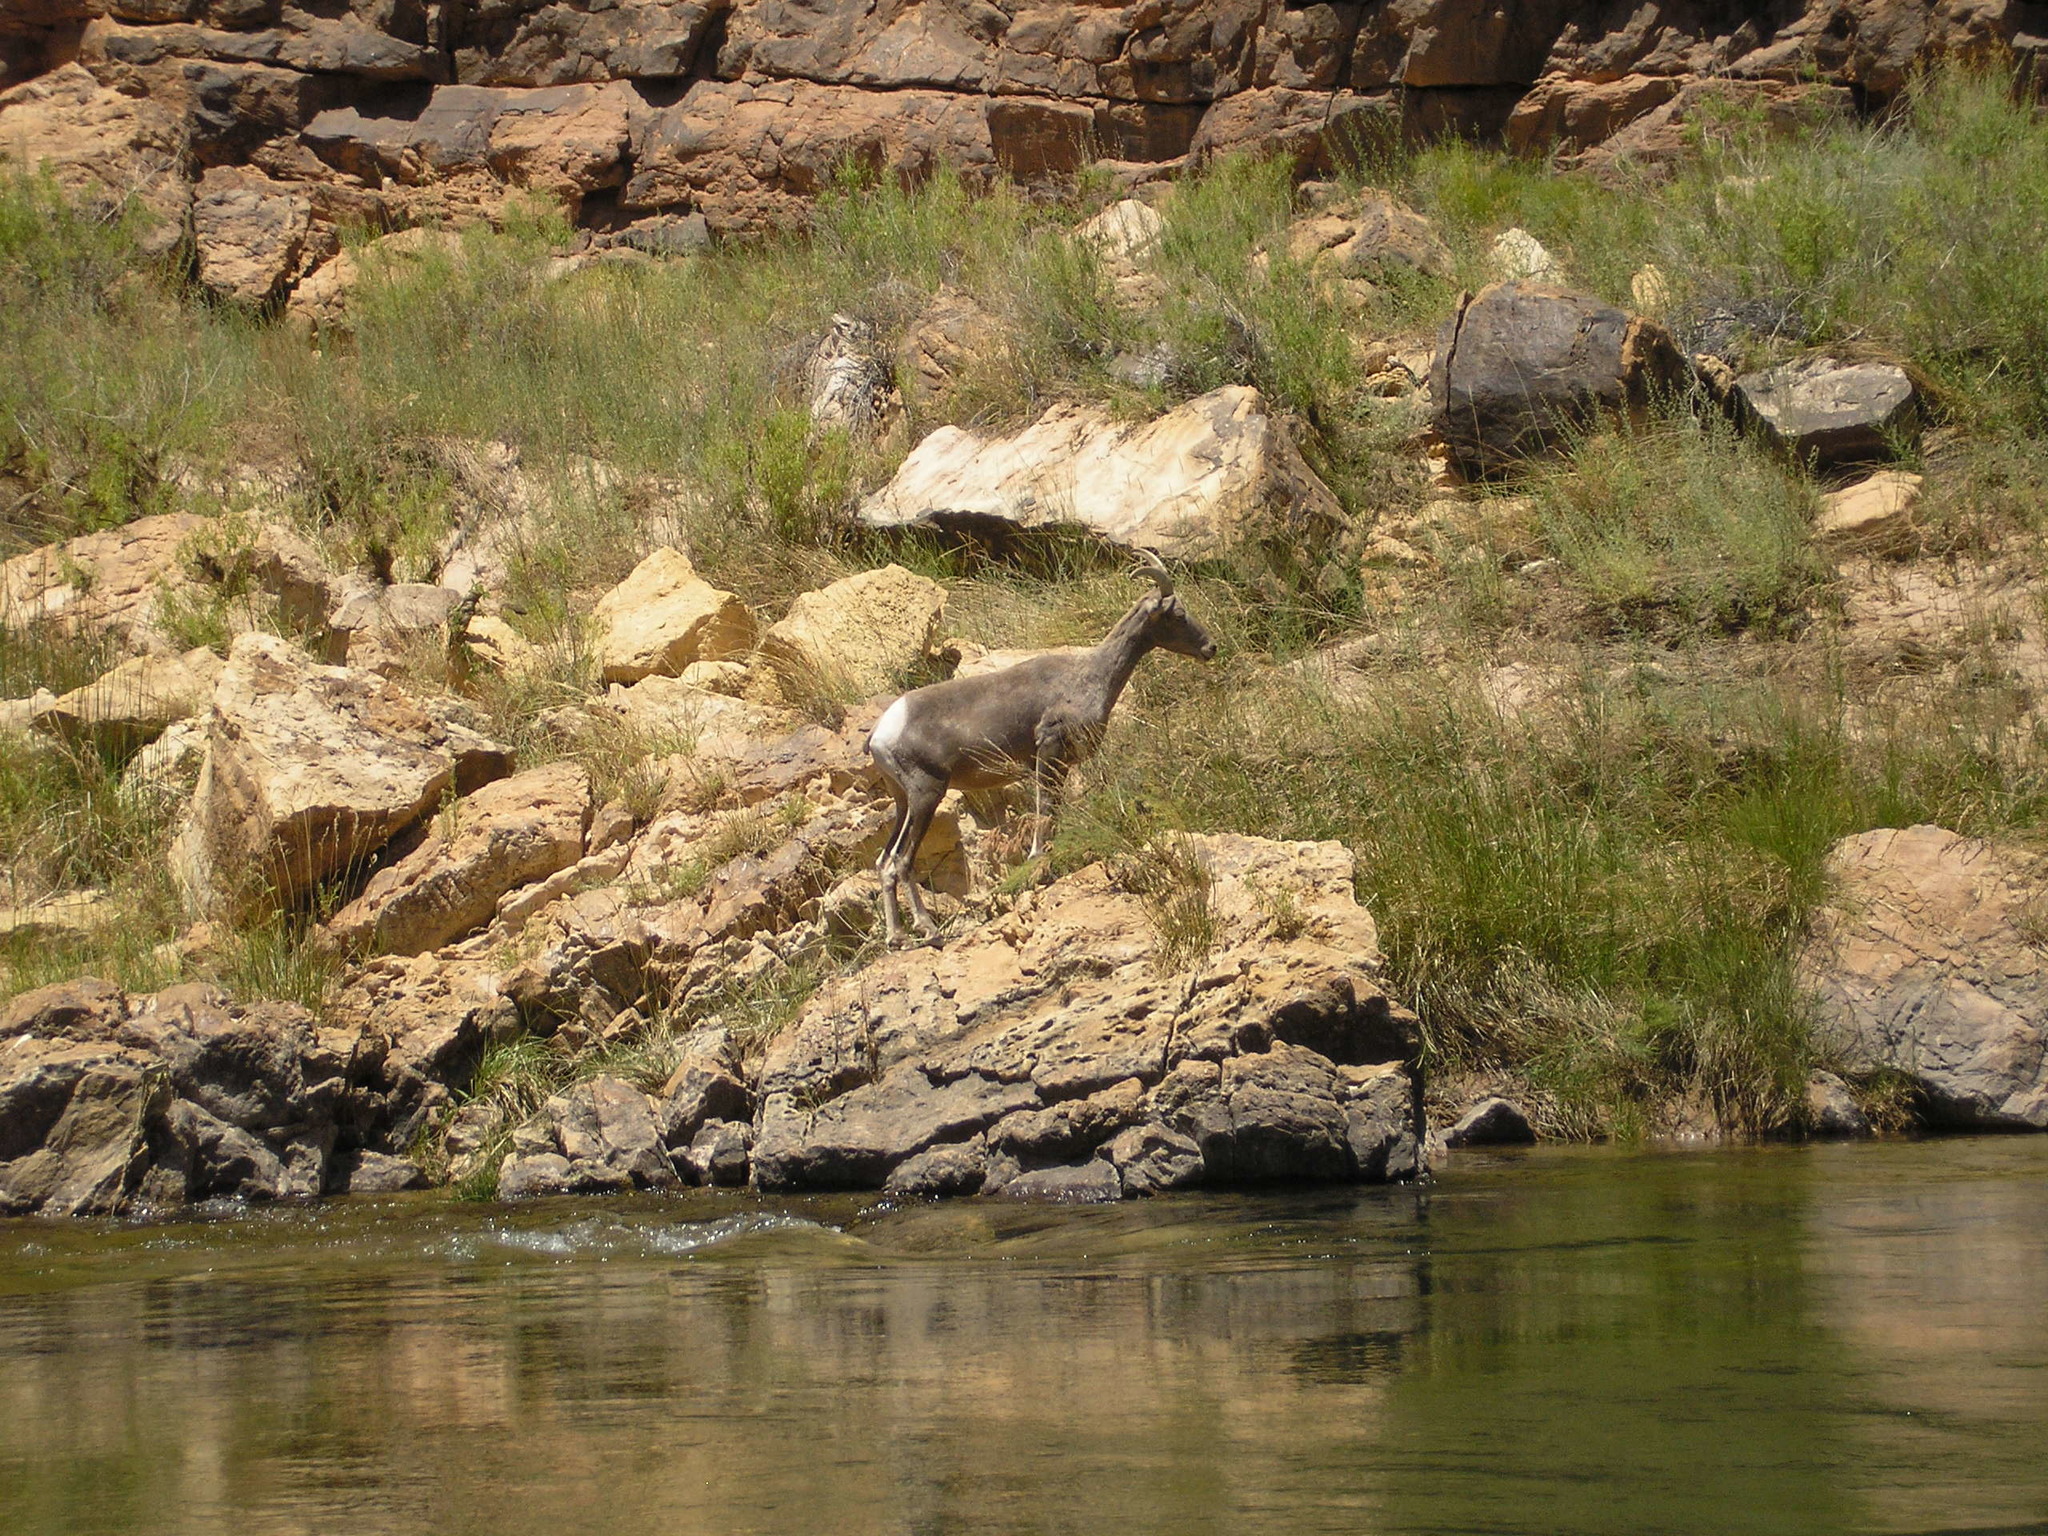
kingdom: Animalia
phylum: Chordata
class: Mammalia
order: Artiodactyla
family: Bovidae
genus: Ovis
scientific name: Ovis canadensis
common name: Bighorn sheep
